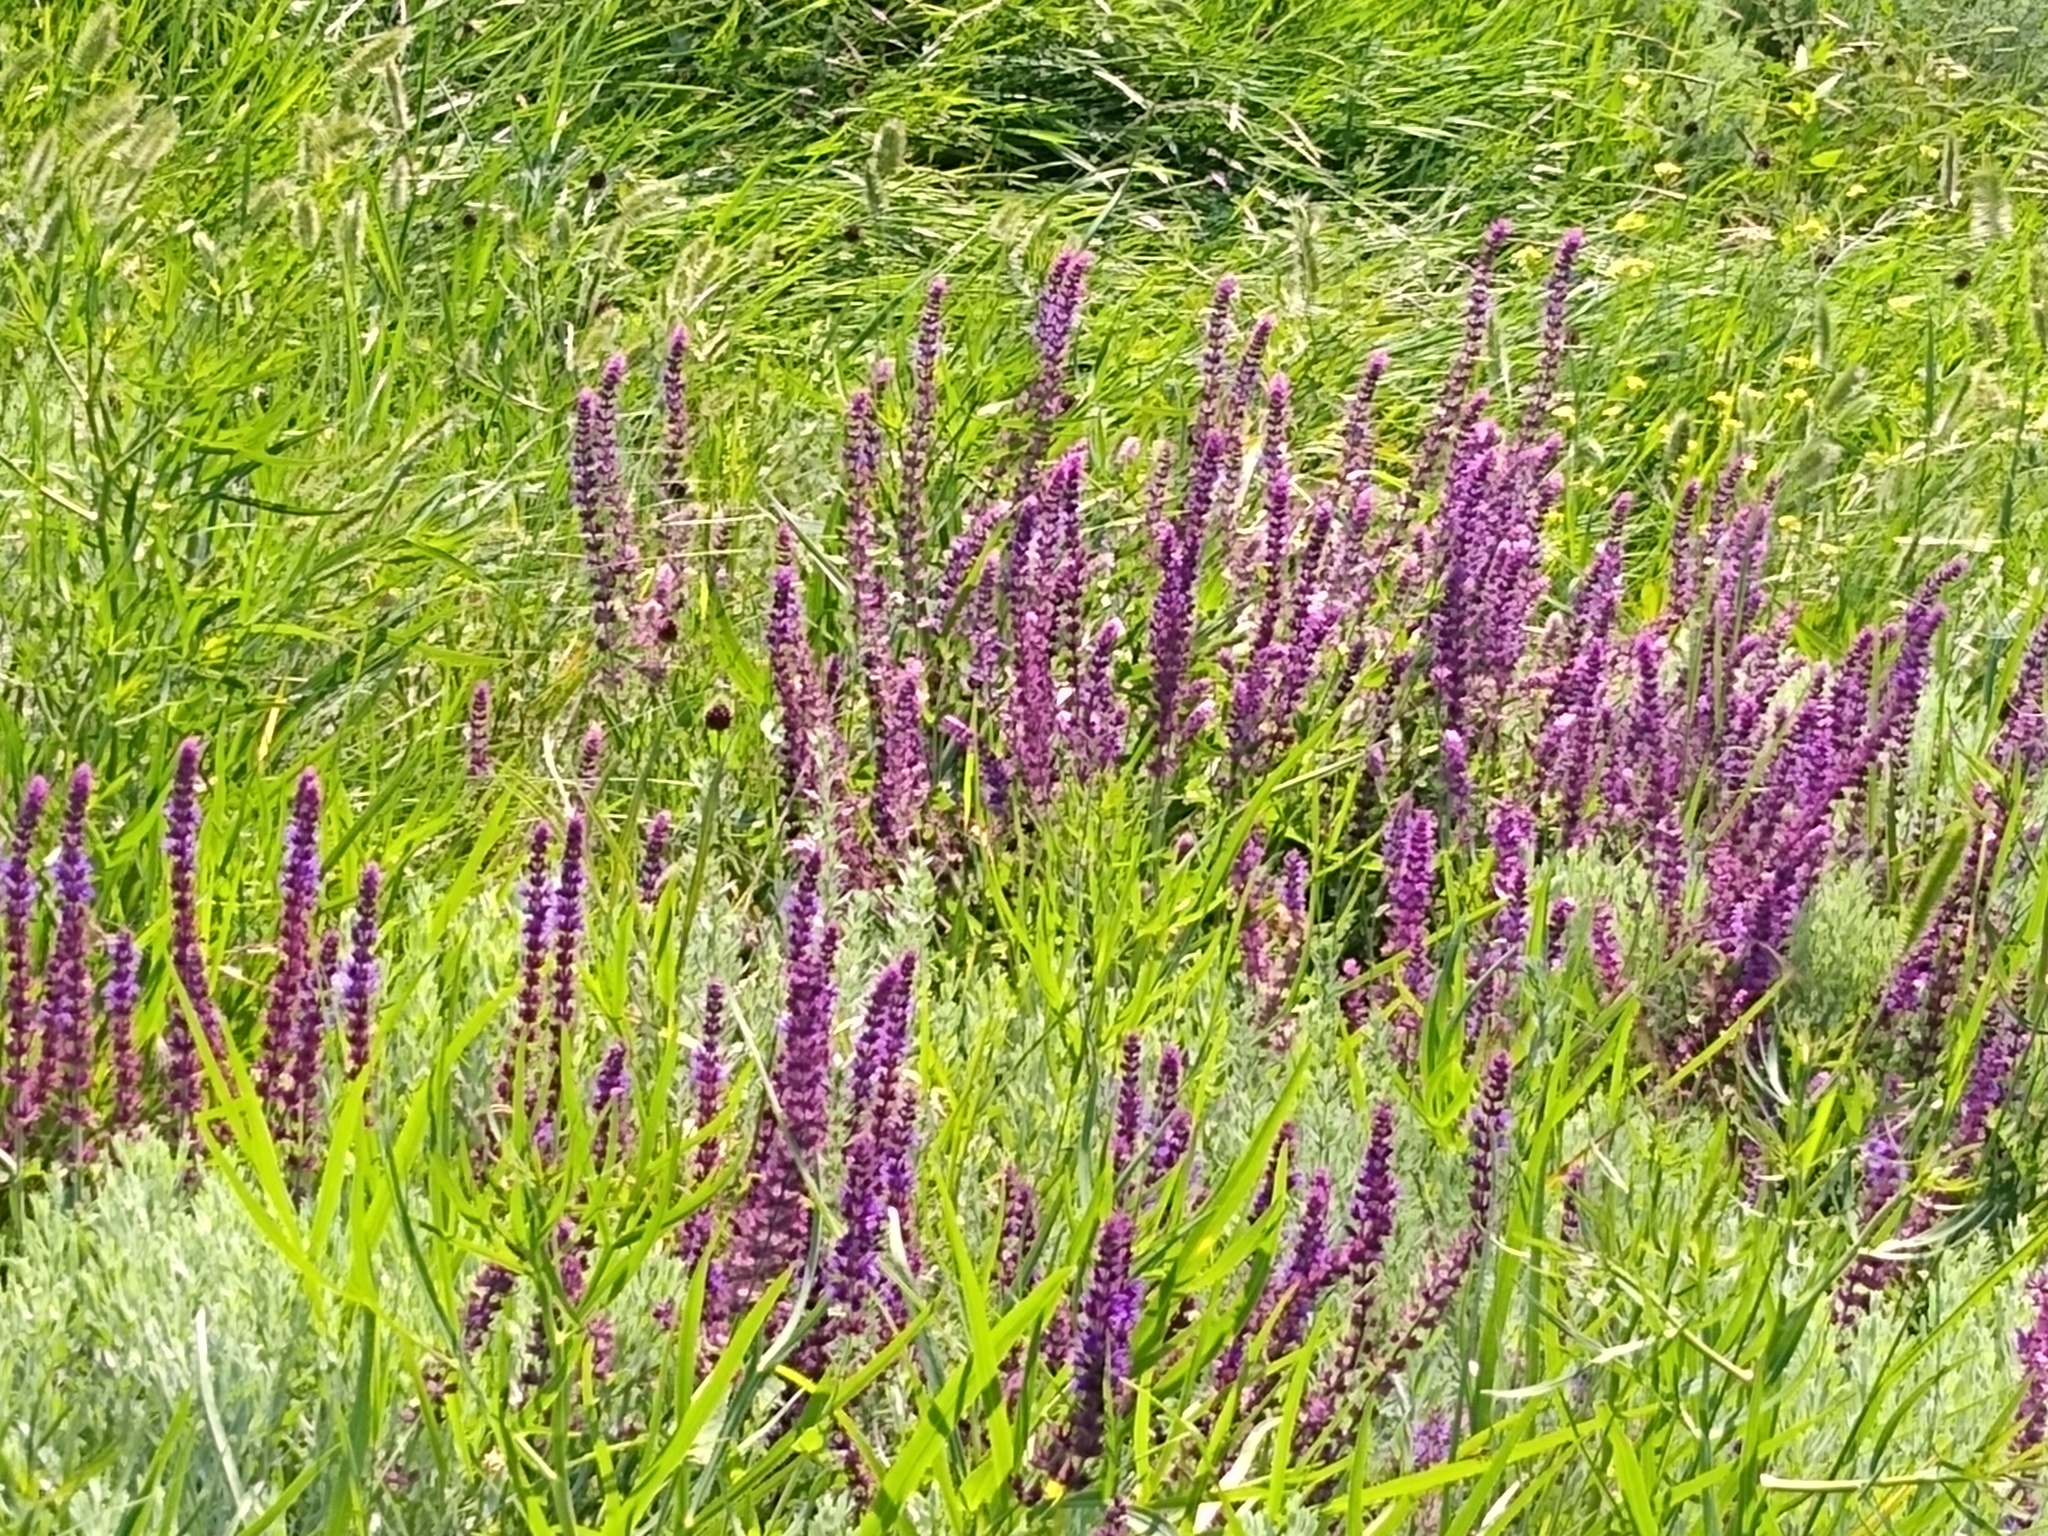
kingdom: Plantae
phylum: Tracheophyta
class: Magnoliopsida
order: Lamiales
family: Lamiaceae
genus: Salvia
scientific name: Salvia nemorosa
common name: Balkan clary
